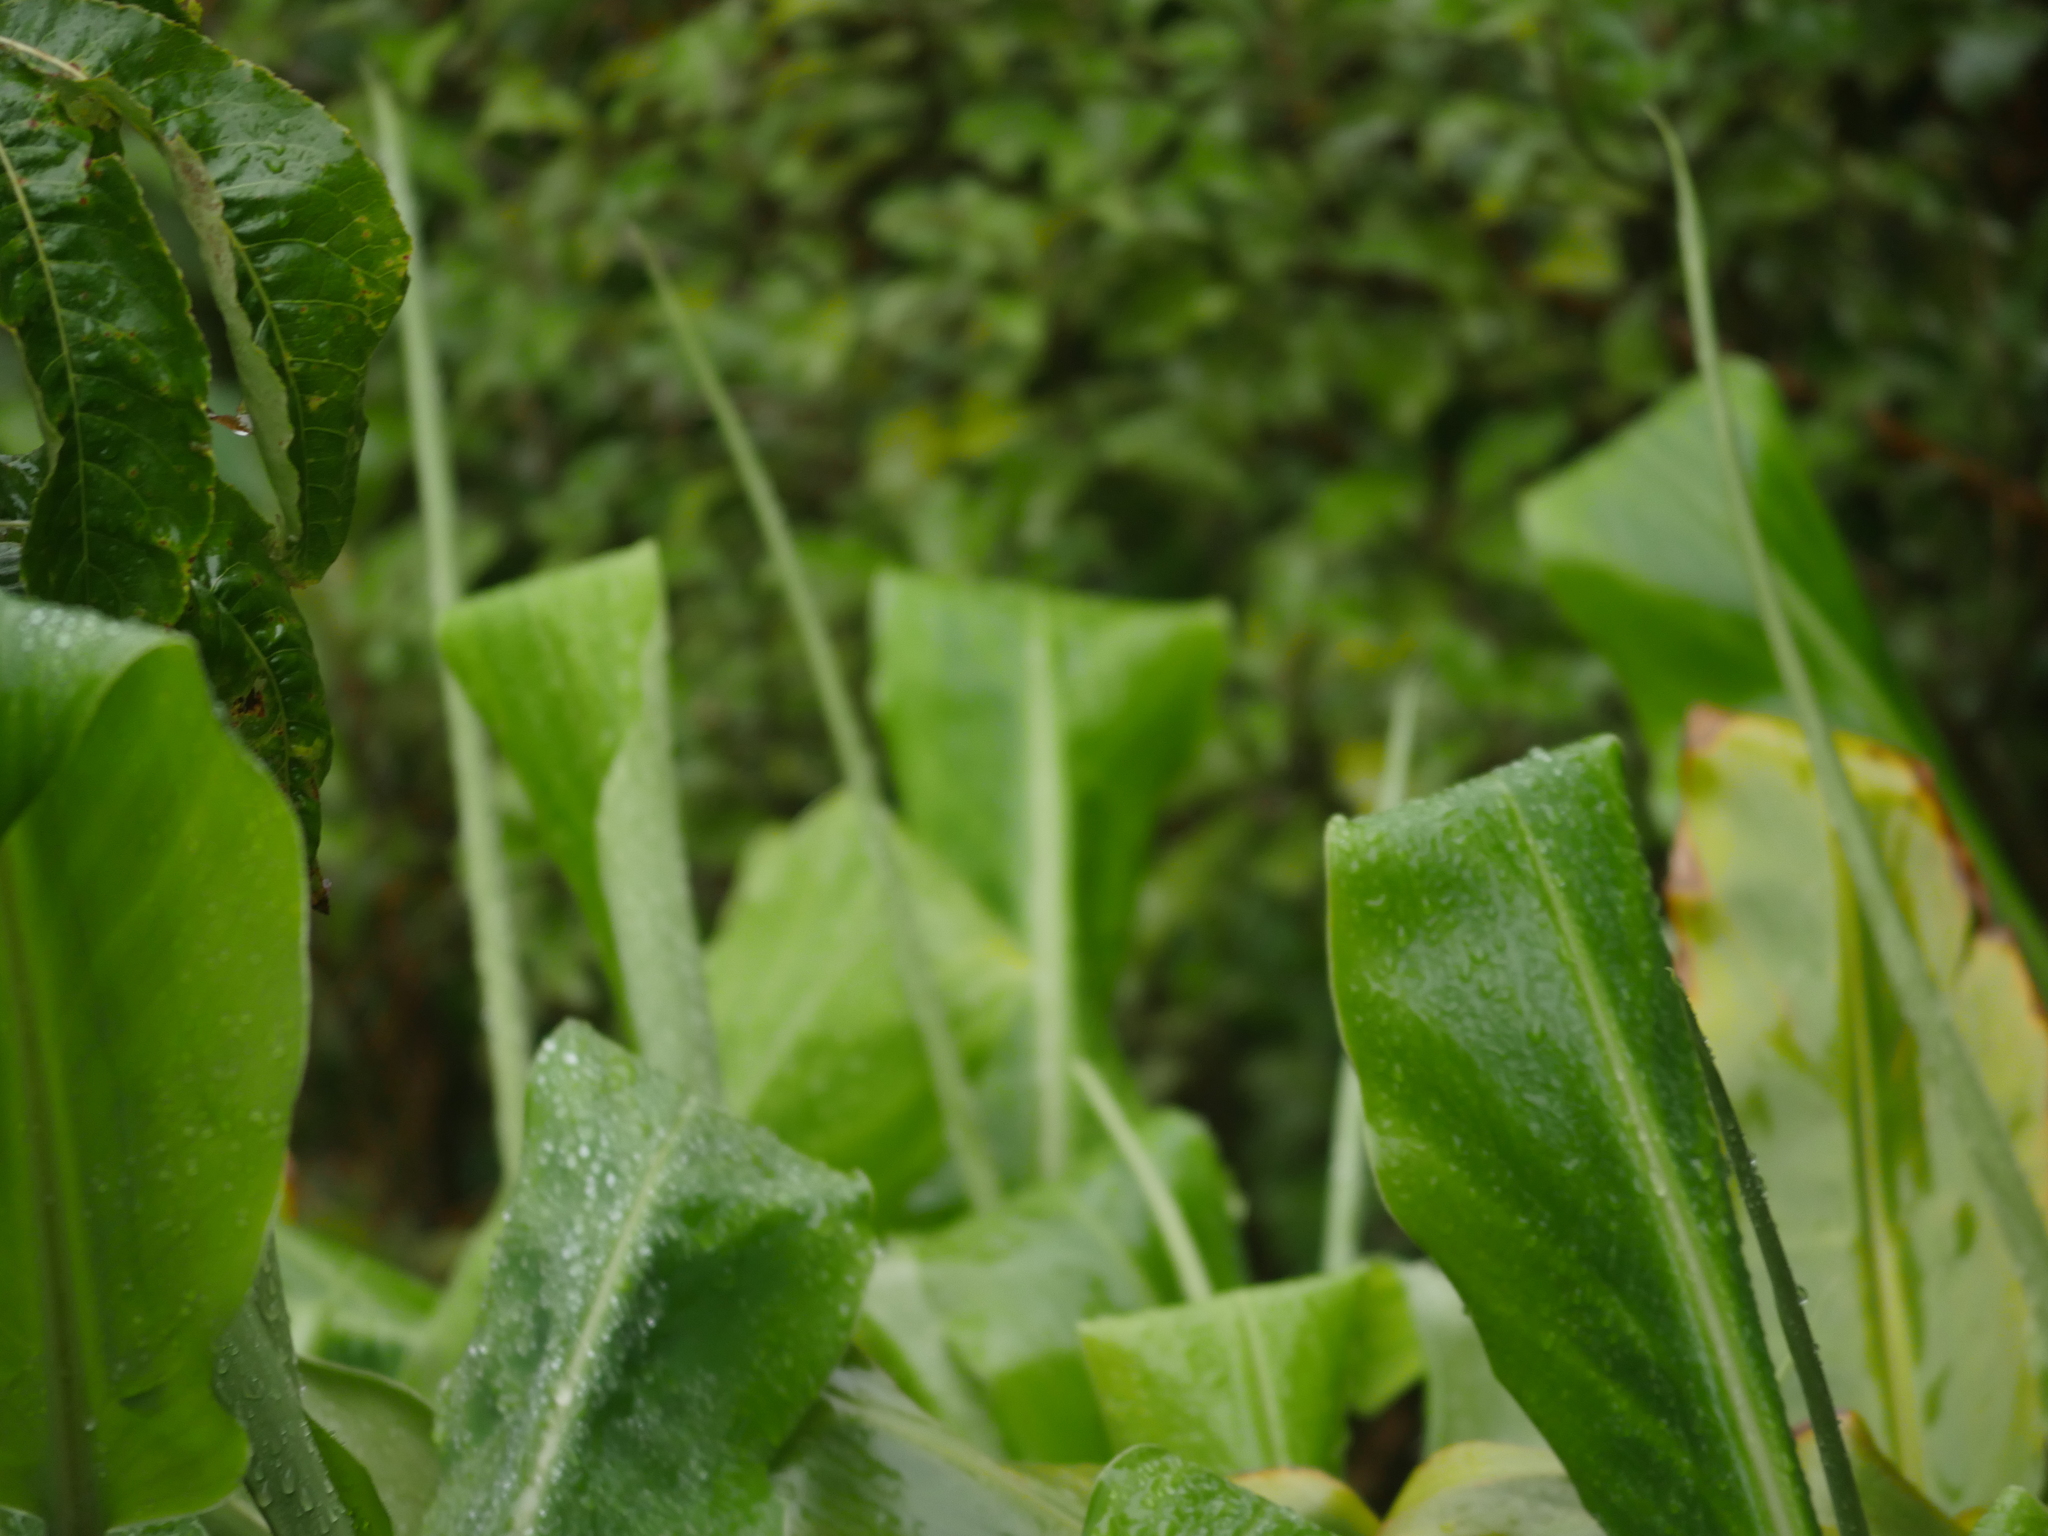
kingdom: Plantae
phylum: Tracheophyta
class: Liliopsida
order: Zingiberales
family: Zingiberaceae
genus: Hedychium
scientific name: Hedychium gardnerianum
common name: Himalayan ginger
